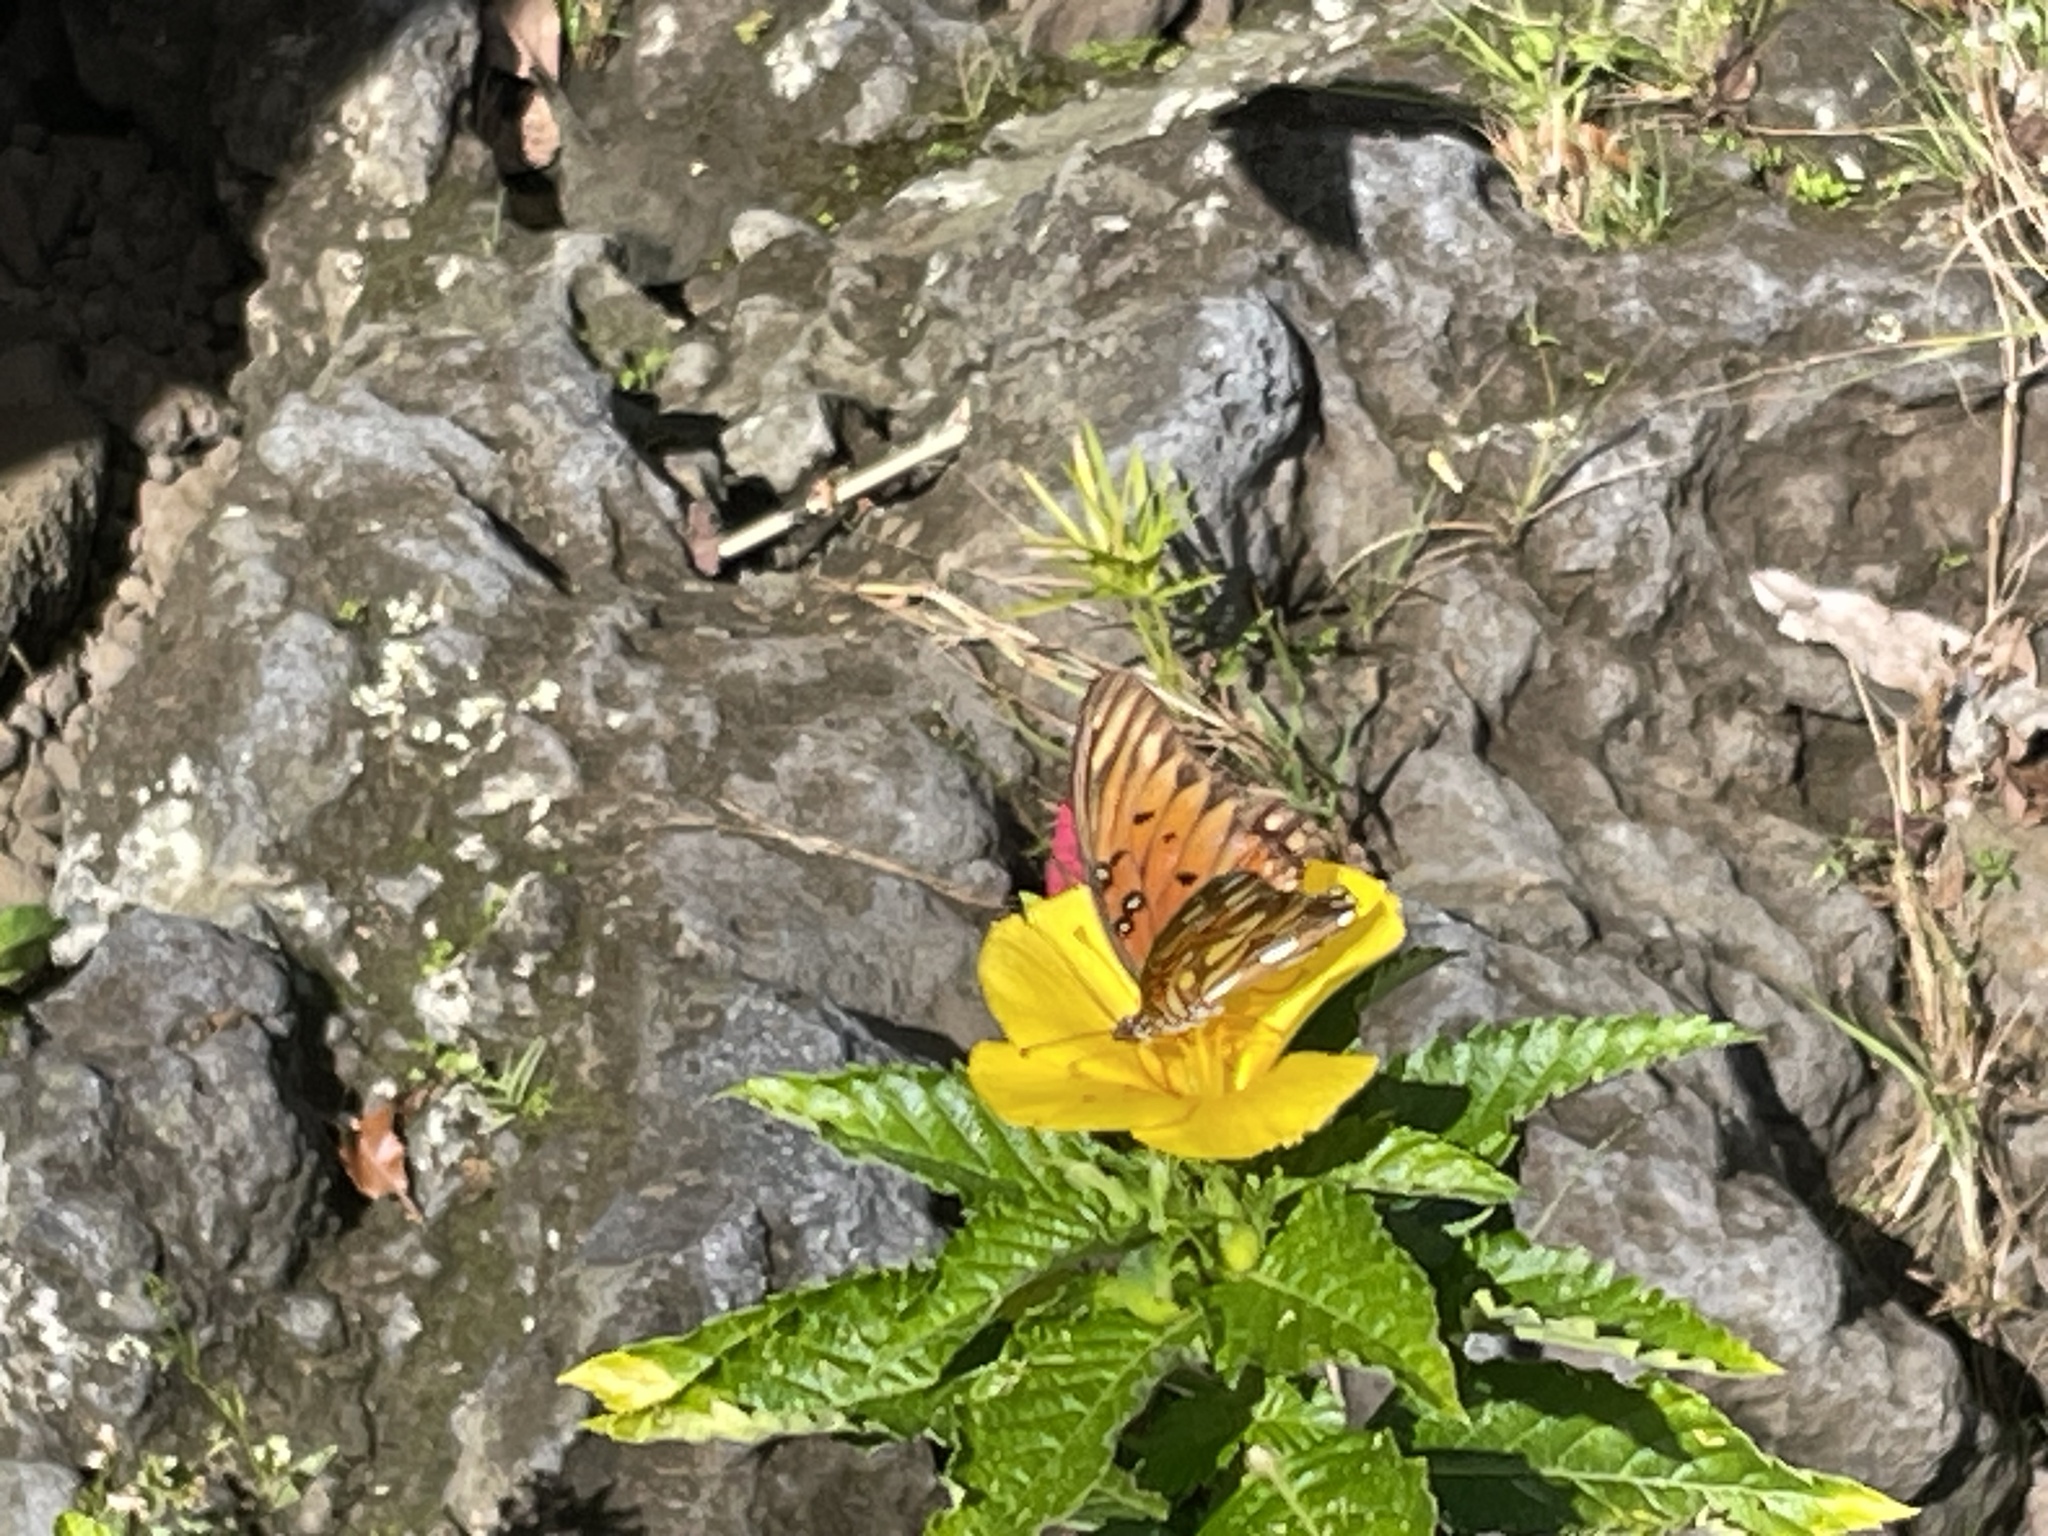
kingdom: Animalia
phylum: Arthropoda
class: Insecta
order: Lepidoptera
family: Nymphalidae
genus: Dione
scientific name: Dione vanillae
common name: Gulf fritillary
